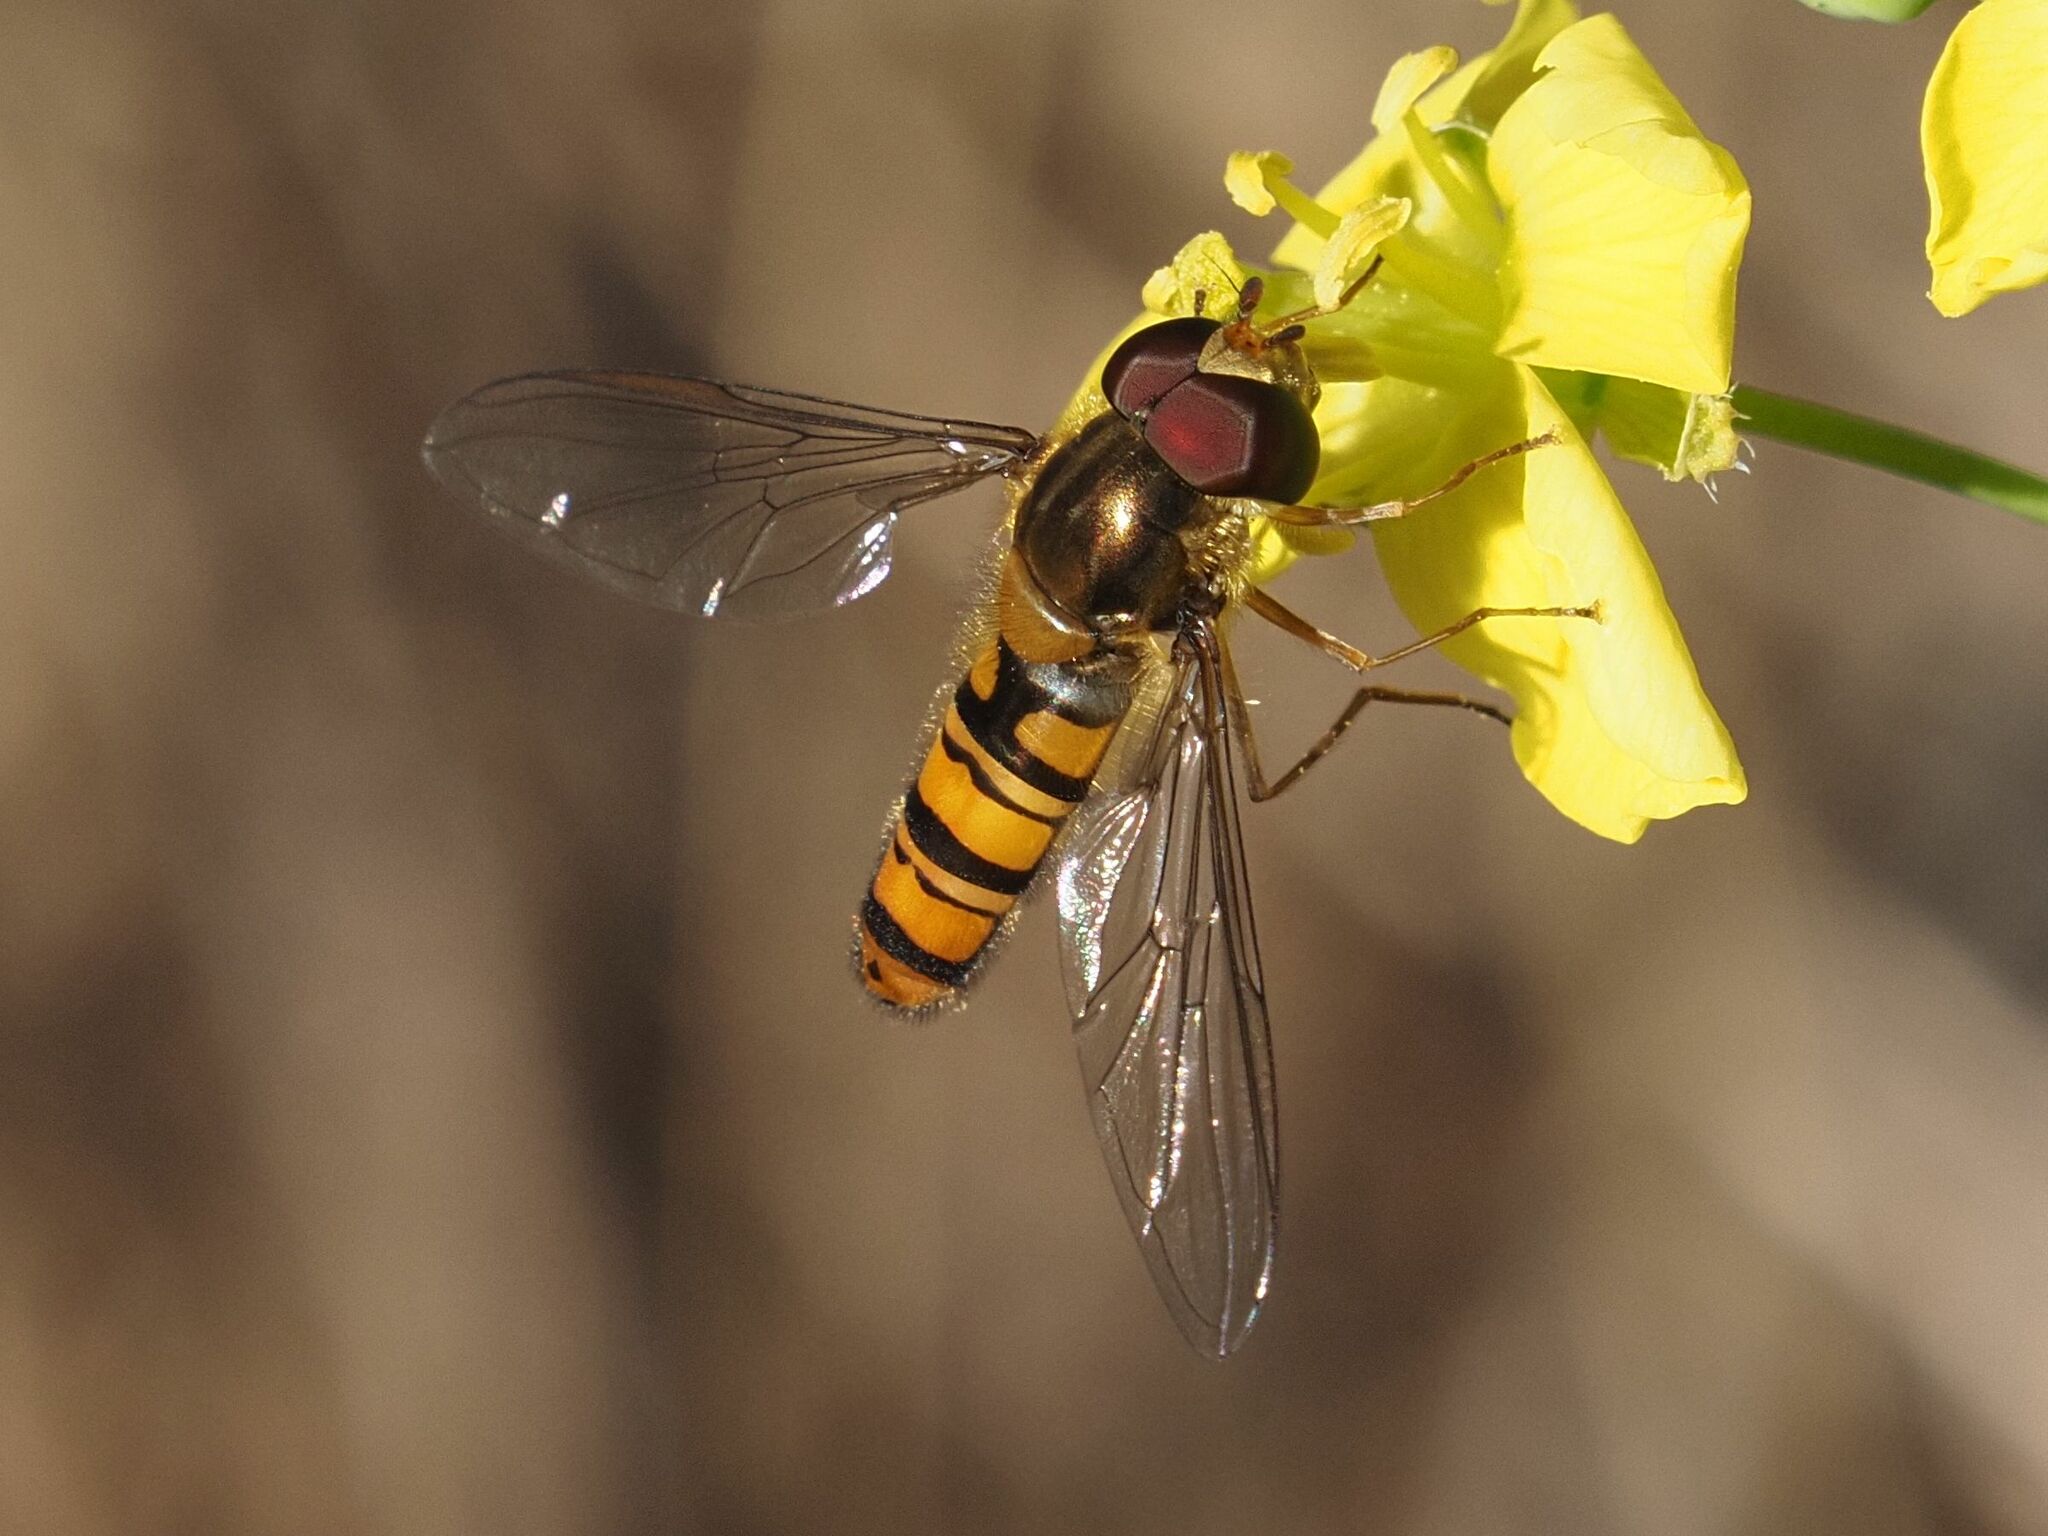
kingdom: Animalia
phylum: Arthropoda
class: Insecta
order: Diptera
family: Syrphidae
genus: Episyrphus
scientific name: Episyrphus balteatus
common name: Marmalade hoverfly
